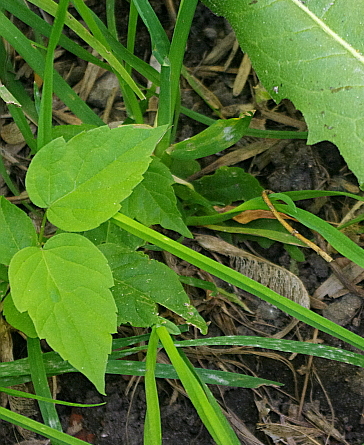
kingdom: Plantae
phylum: Tracheophyta
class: Magnoliopsida
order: Sapindales
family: Sapindaceae
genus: Acer
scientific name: Acer negundo
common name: Ashleaf maple
